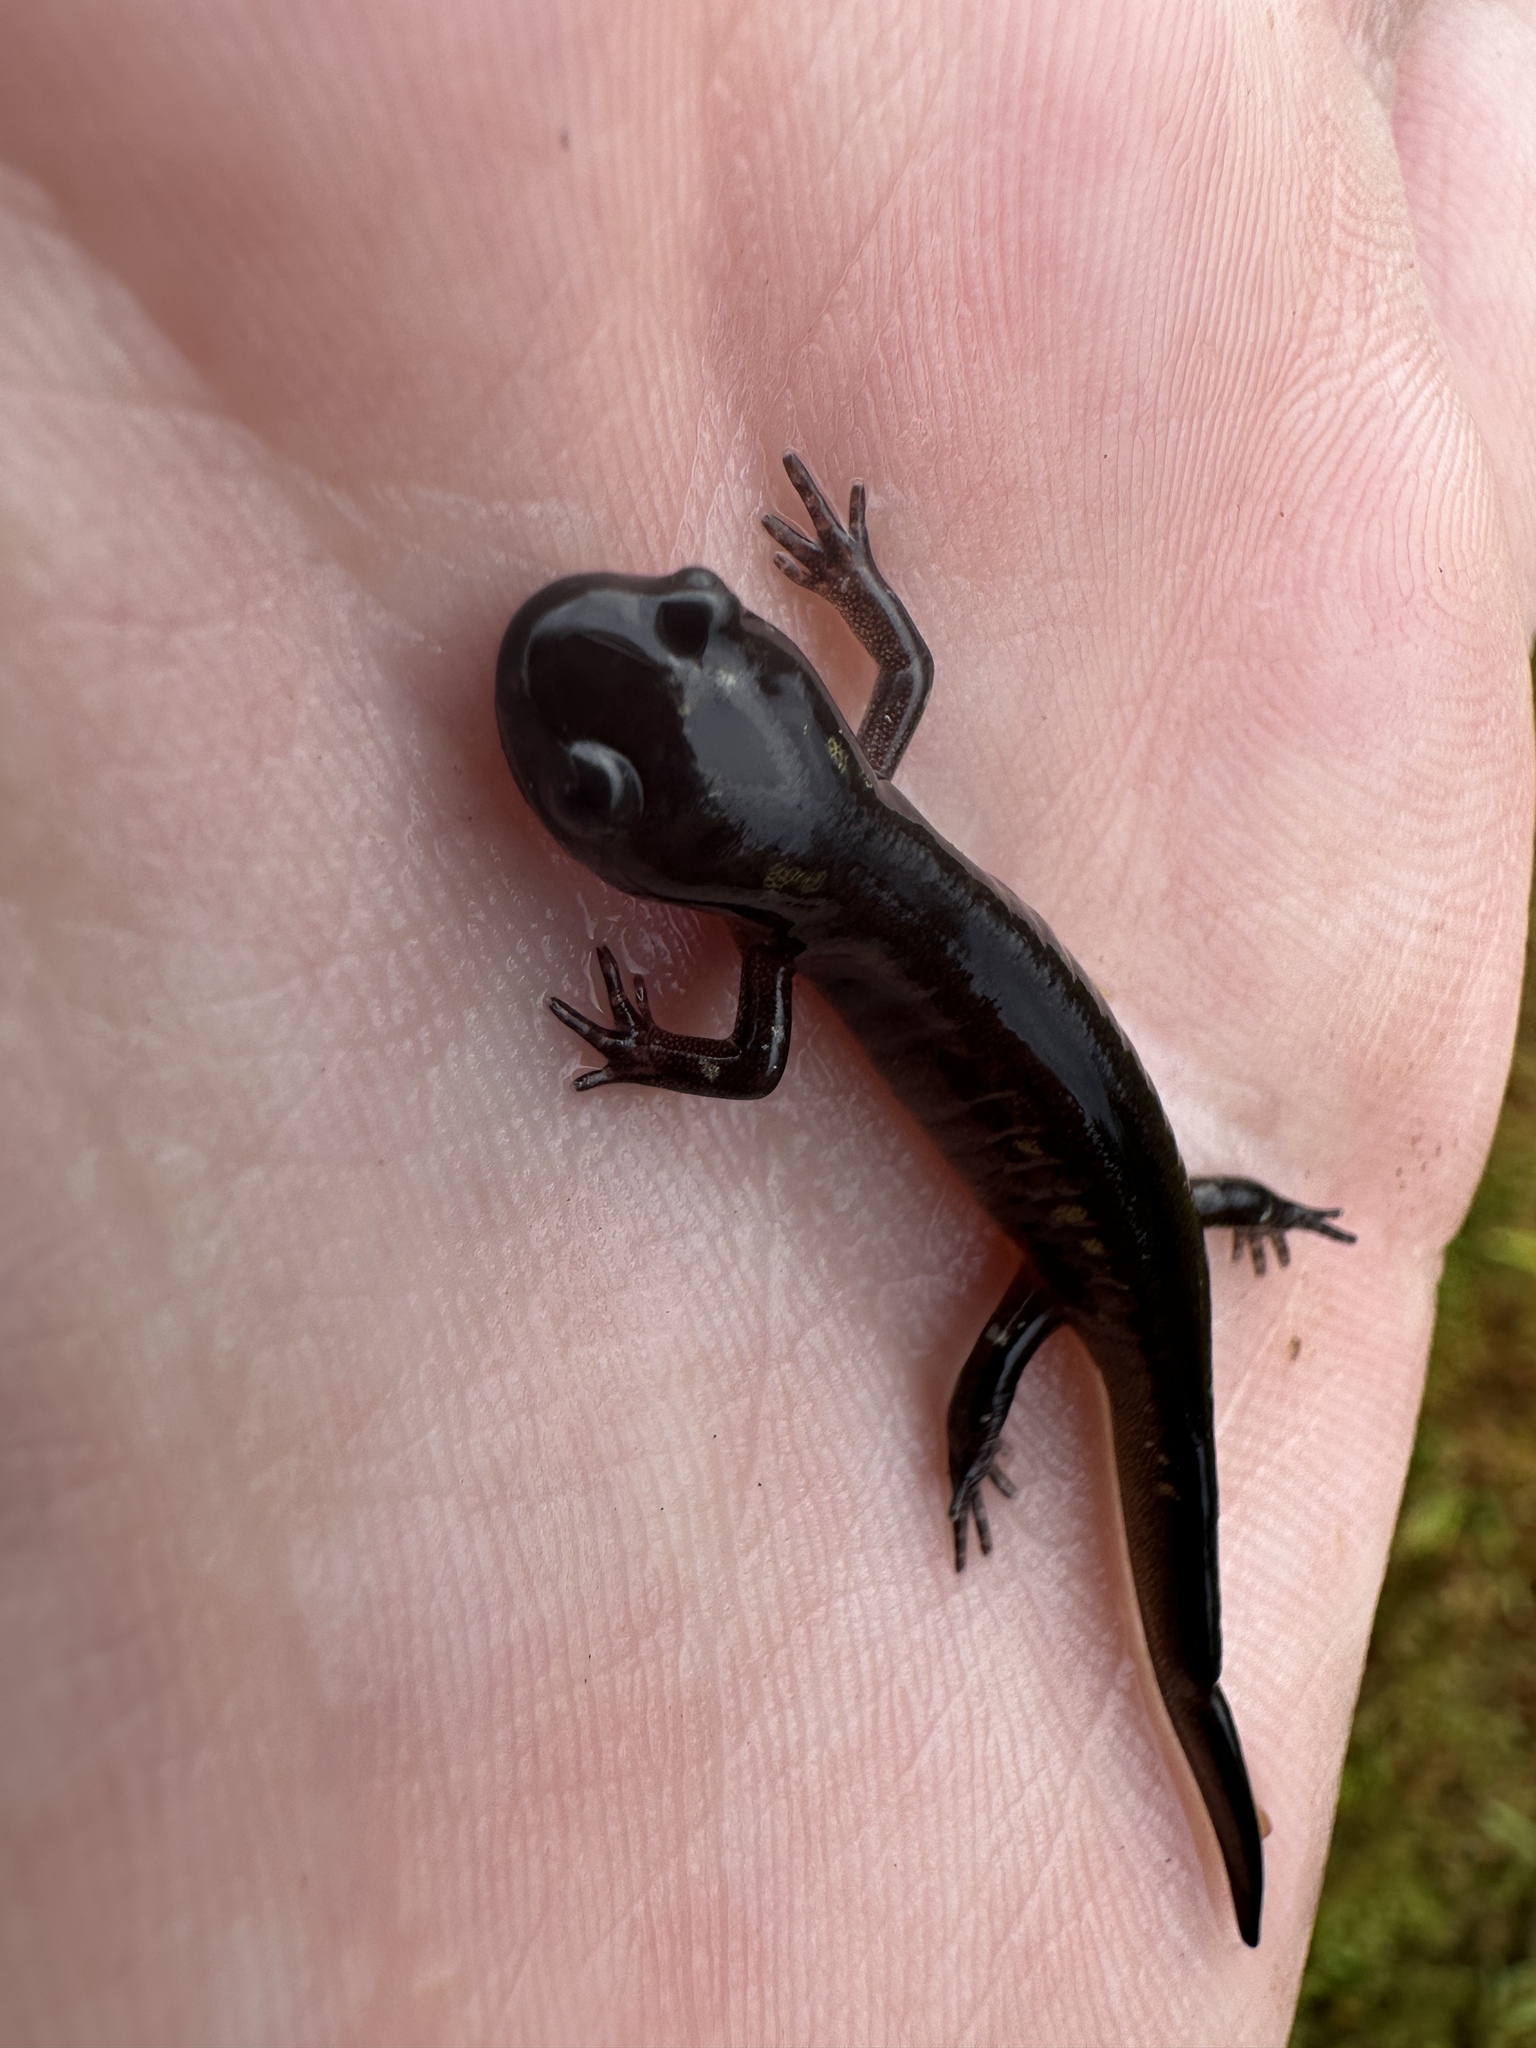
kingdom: Animalia
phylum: Chordata
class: Amphibia
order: Caudata
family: Ambystomatidae
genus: Ambystoma
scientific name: Ambystoma maculatum
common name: Spotted salamander
